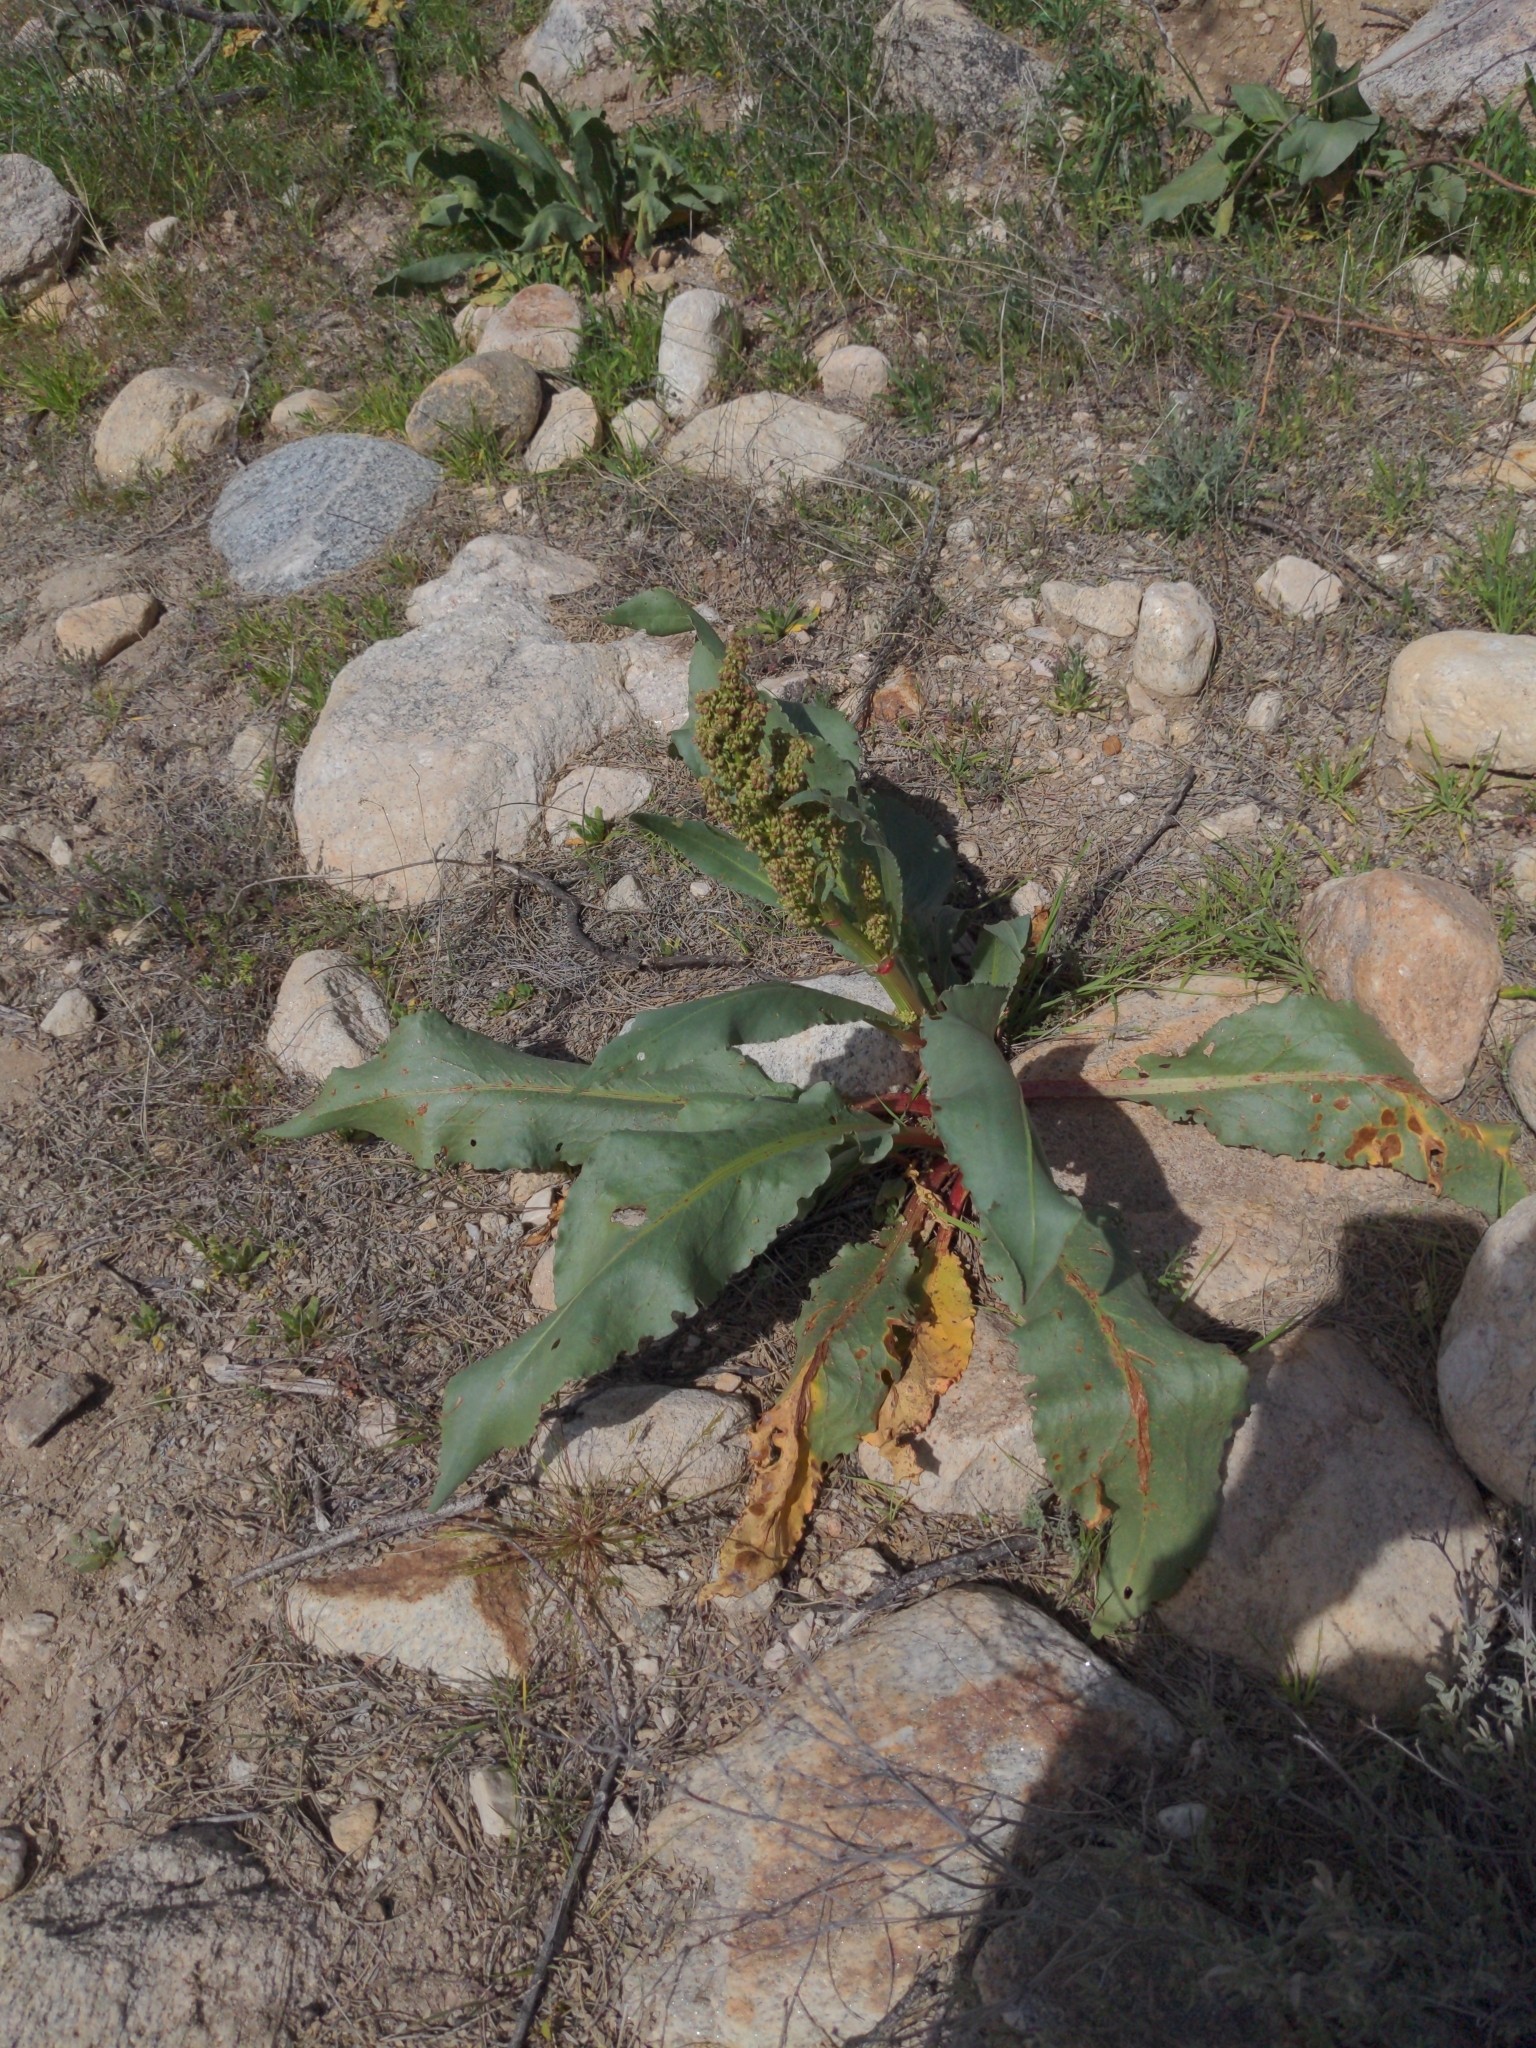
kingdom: Plantae
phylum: Tracheophyta
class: Magnoliopsida
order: Caryophyllales
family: Polygonaceae
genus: Rumex
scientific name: Rumex hymenosepalus
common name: Ganagra
